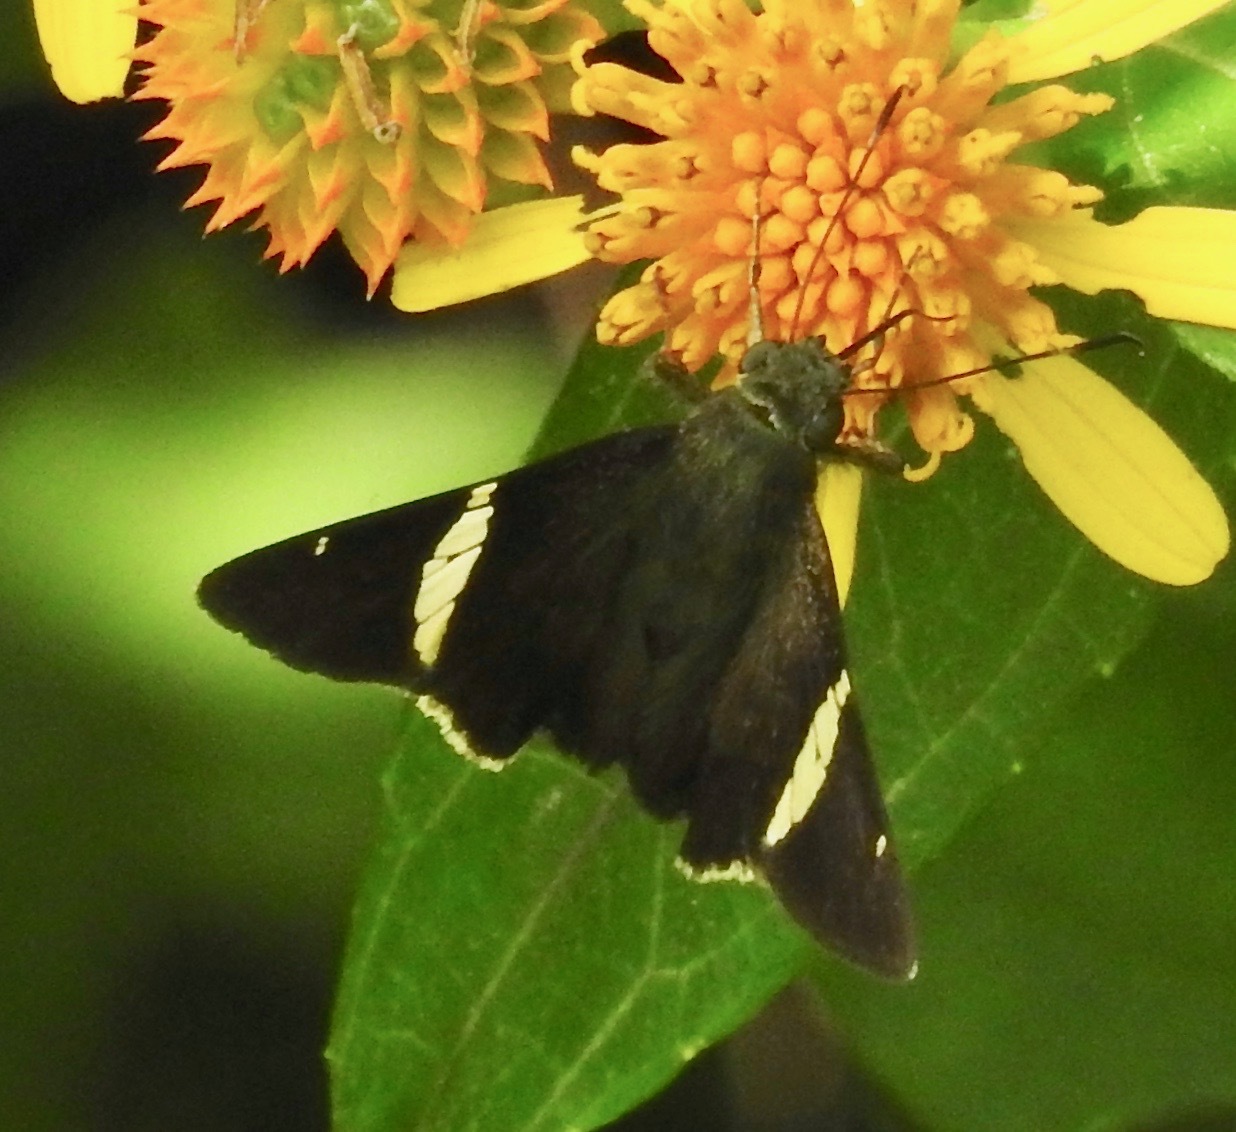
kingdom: Animalia
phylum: Arthropoda
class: Insecta
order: Lepidoptera
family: Hesperiidae
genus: Autochton
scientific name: Autochton longipennis
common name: Spike banded-skipper
